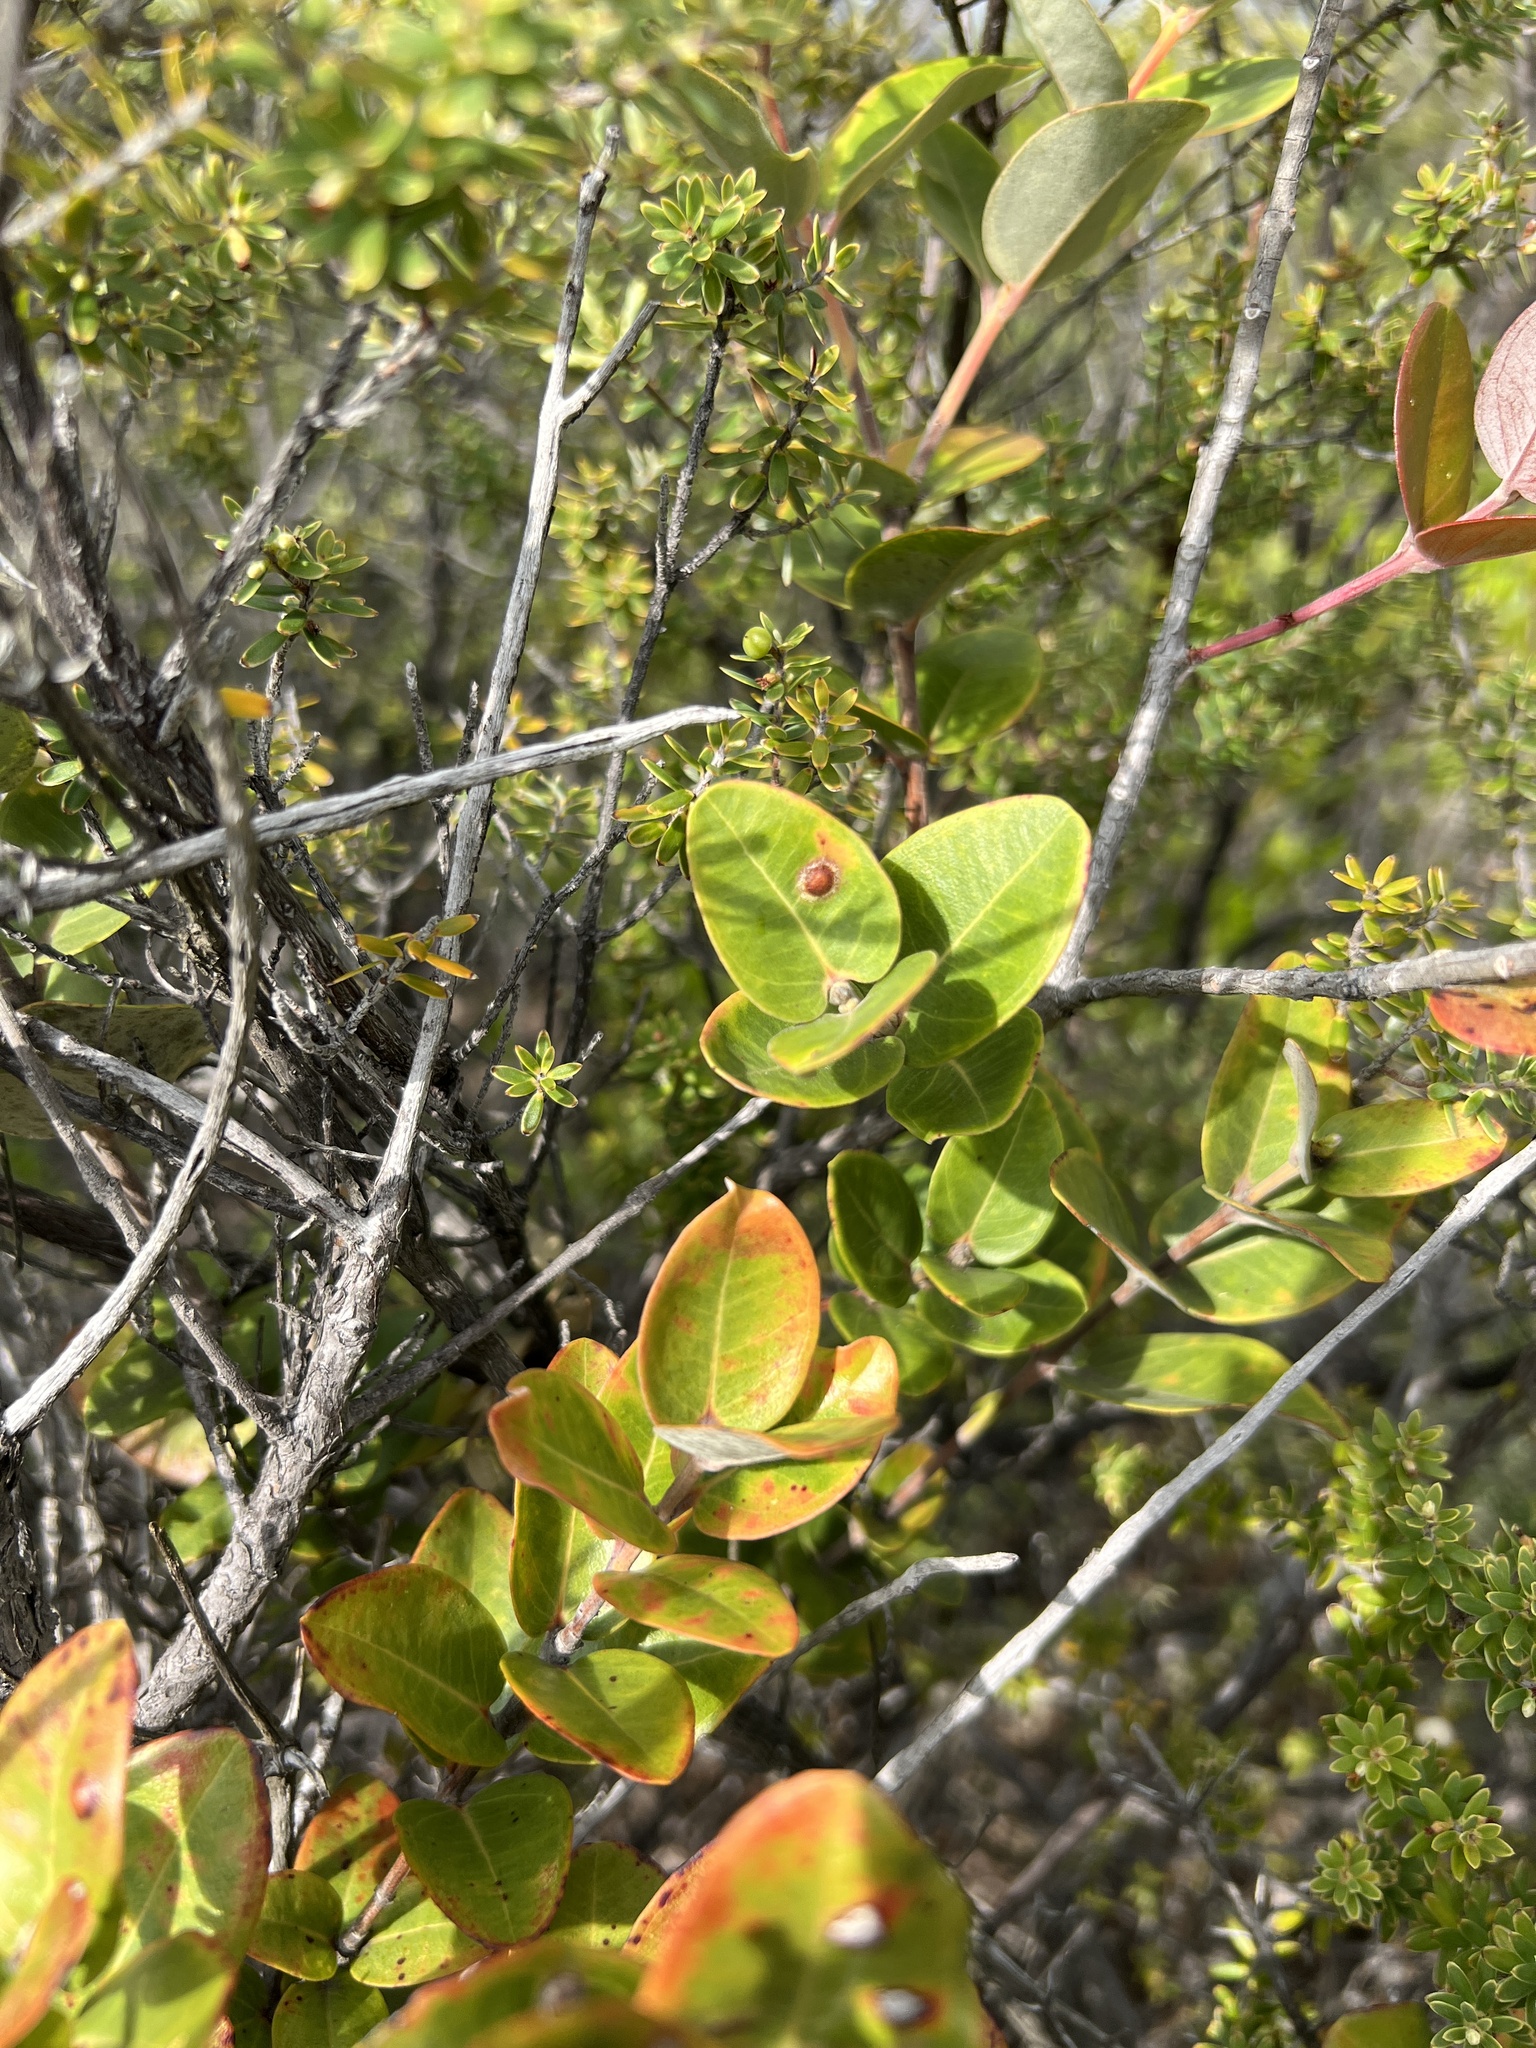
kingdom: Plantae
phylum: Tracheophyta
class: Magnoliopsida
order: Myrtales
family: Myrtaceae
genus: Metrosideros
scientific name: Metrosideros polymorpha
